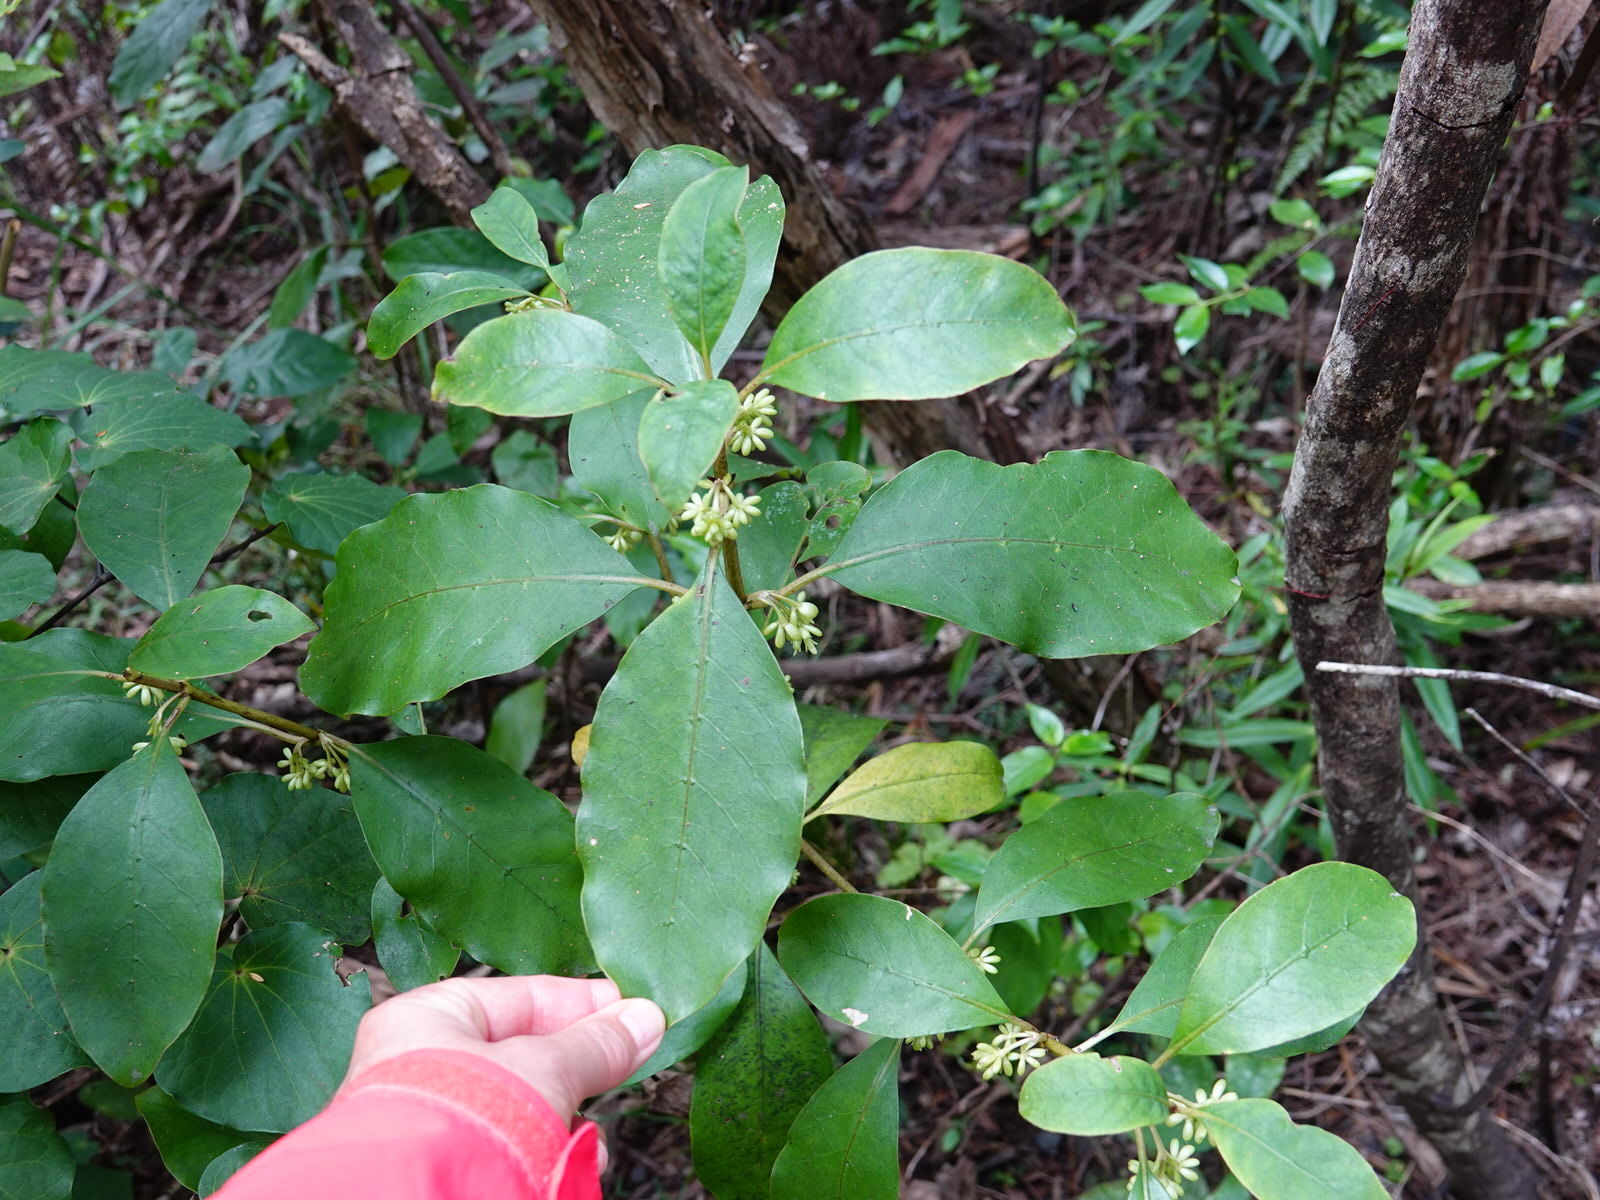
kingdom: Plantae
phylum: Tracheophyta
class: Magnoliopsida
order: Gentianales
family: Rubiaceae
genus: Coprosma
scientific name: Coprosma autumnalis
